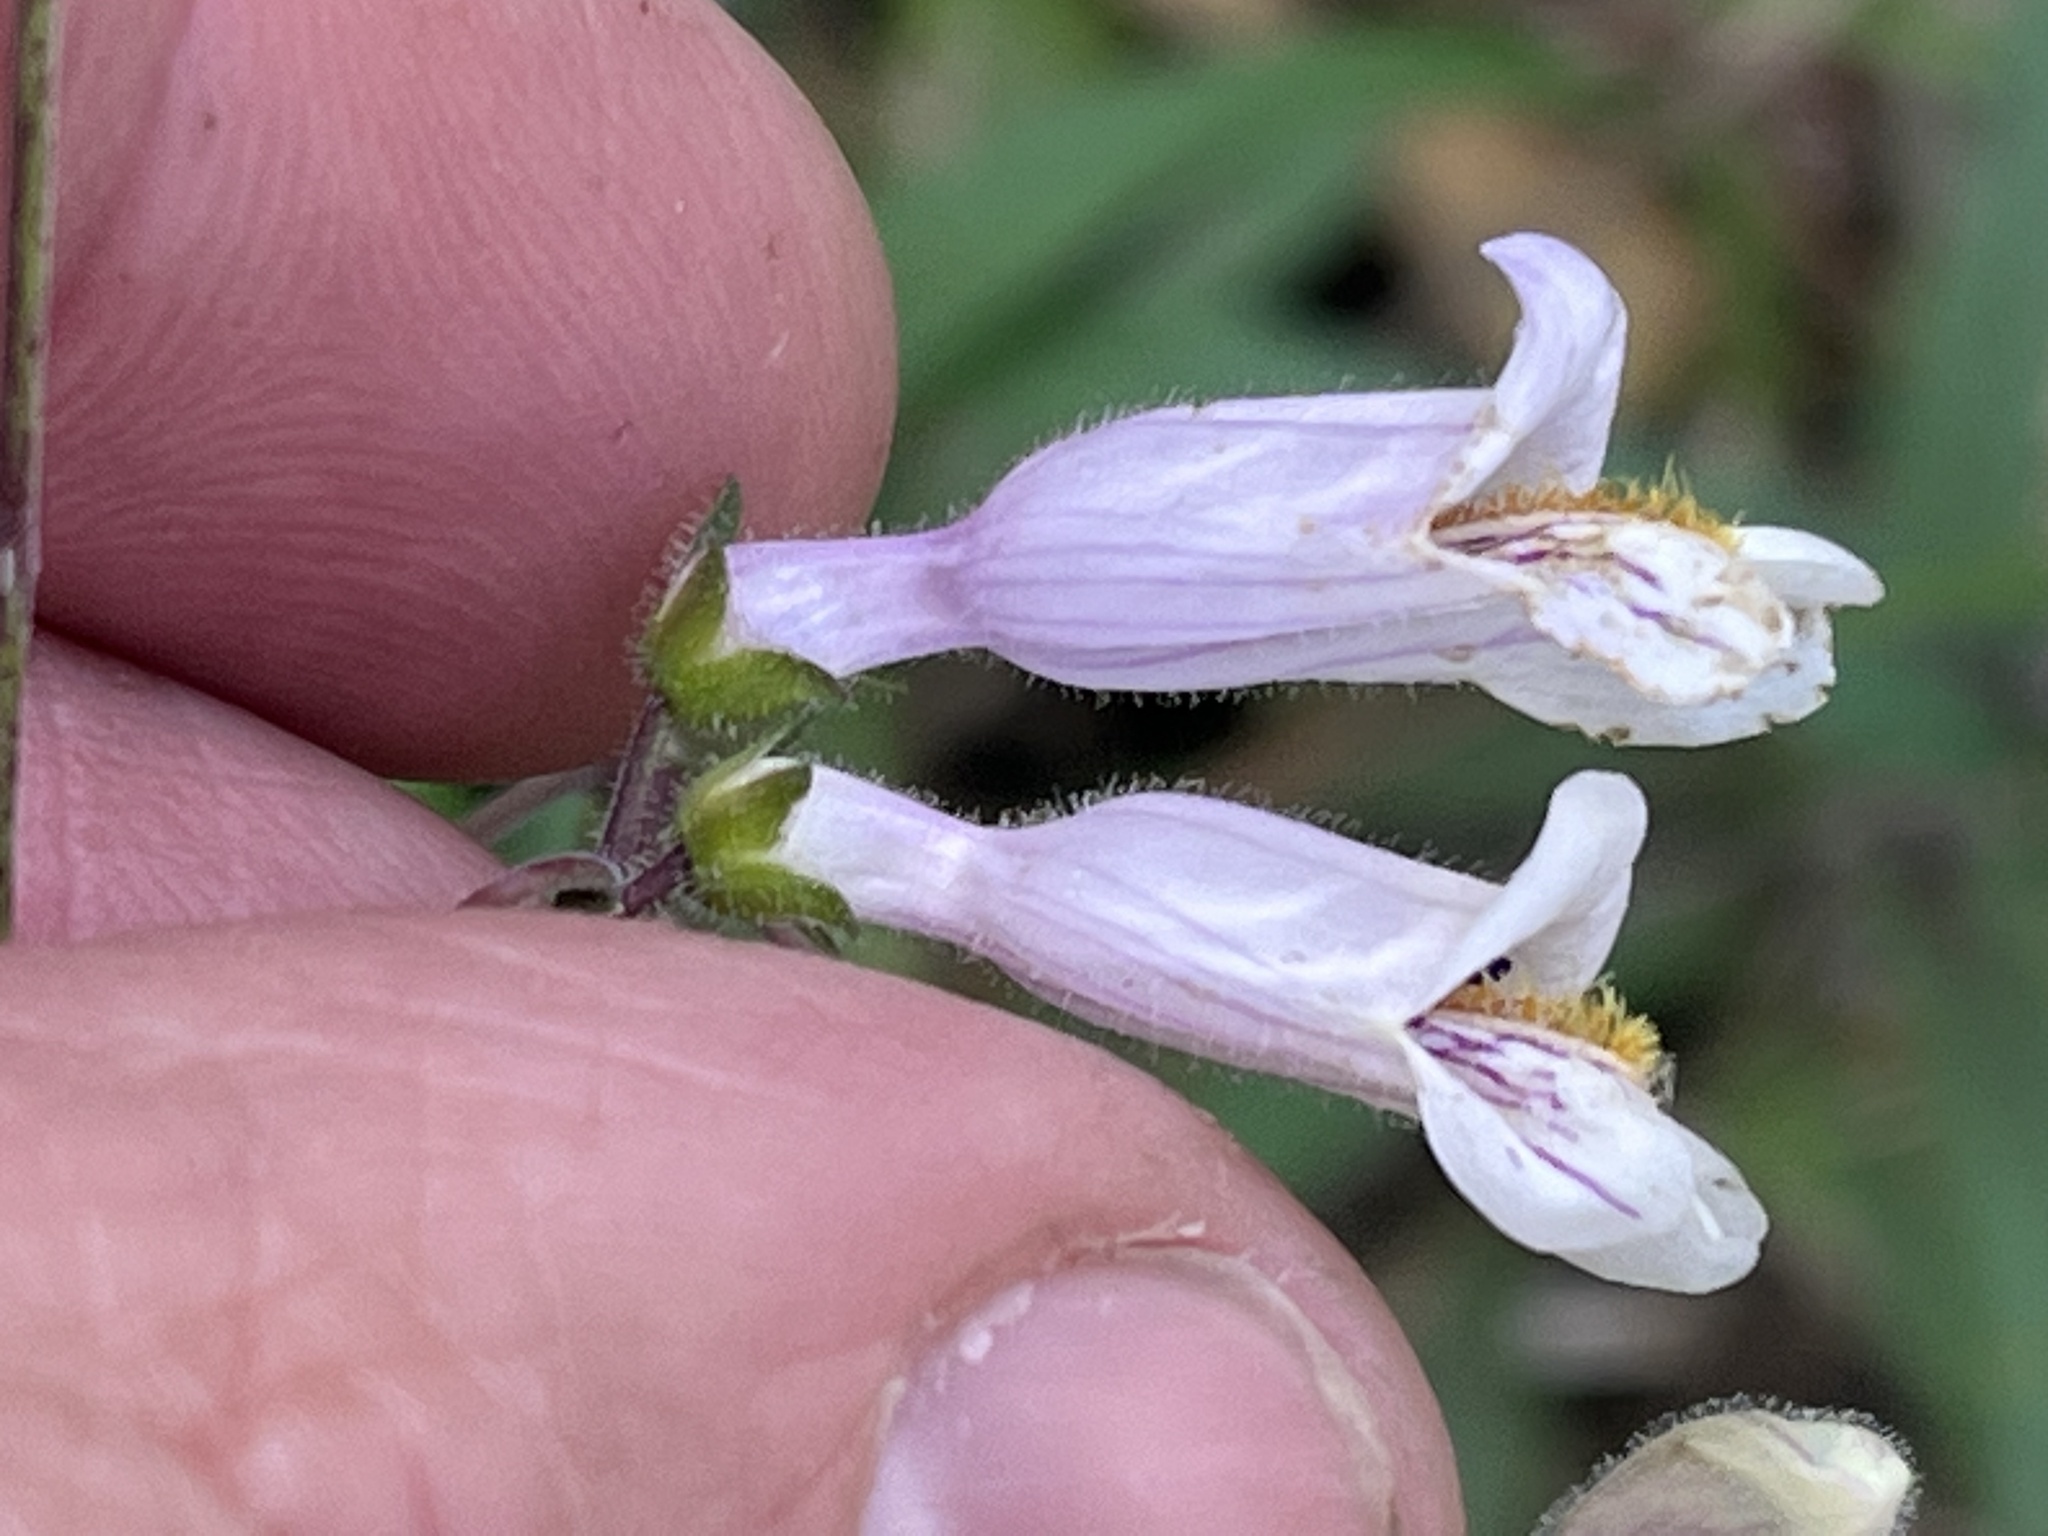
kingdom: Plantae
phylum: Tracheophyta
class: Magnoliopsida
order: Lamiales
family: Plantaginaceae
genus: Penstemon
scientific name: Penstemon laxiflorus
